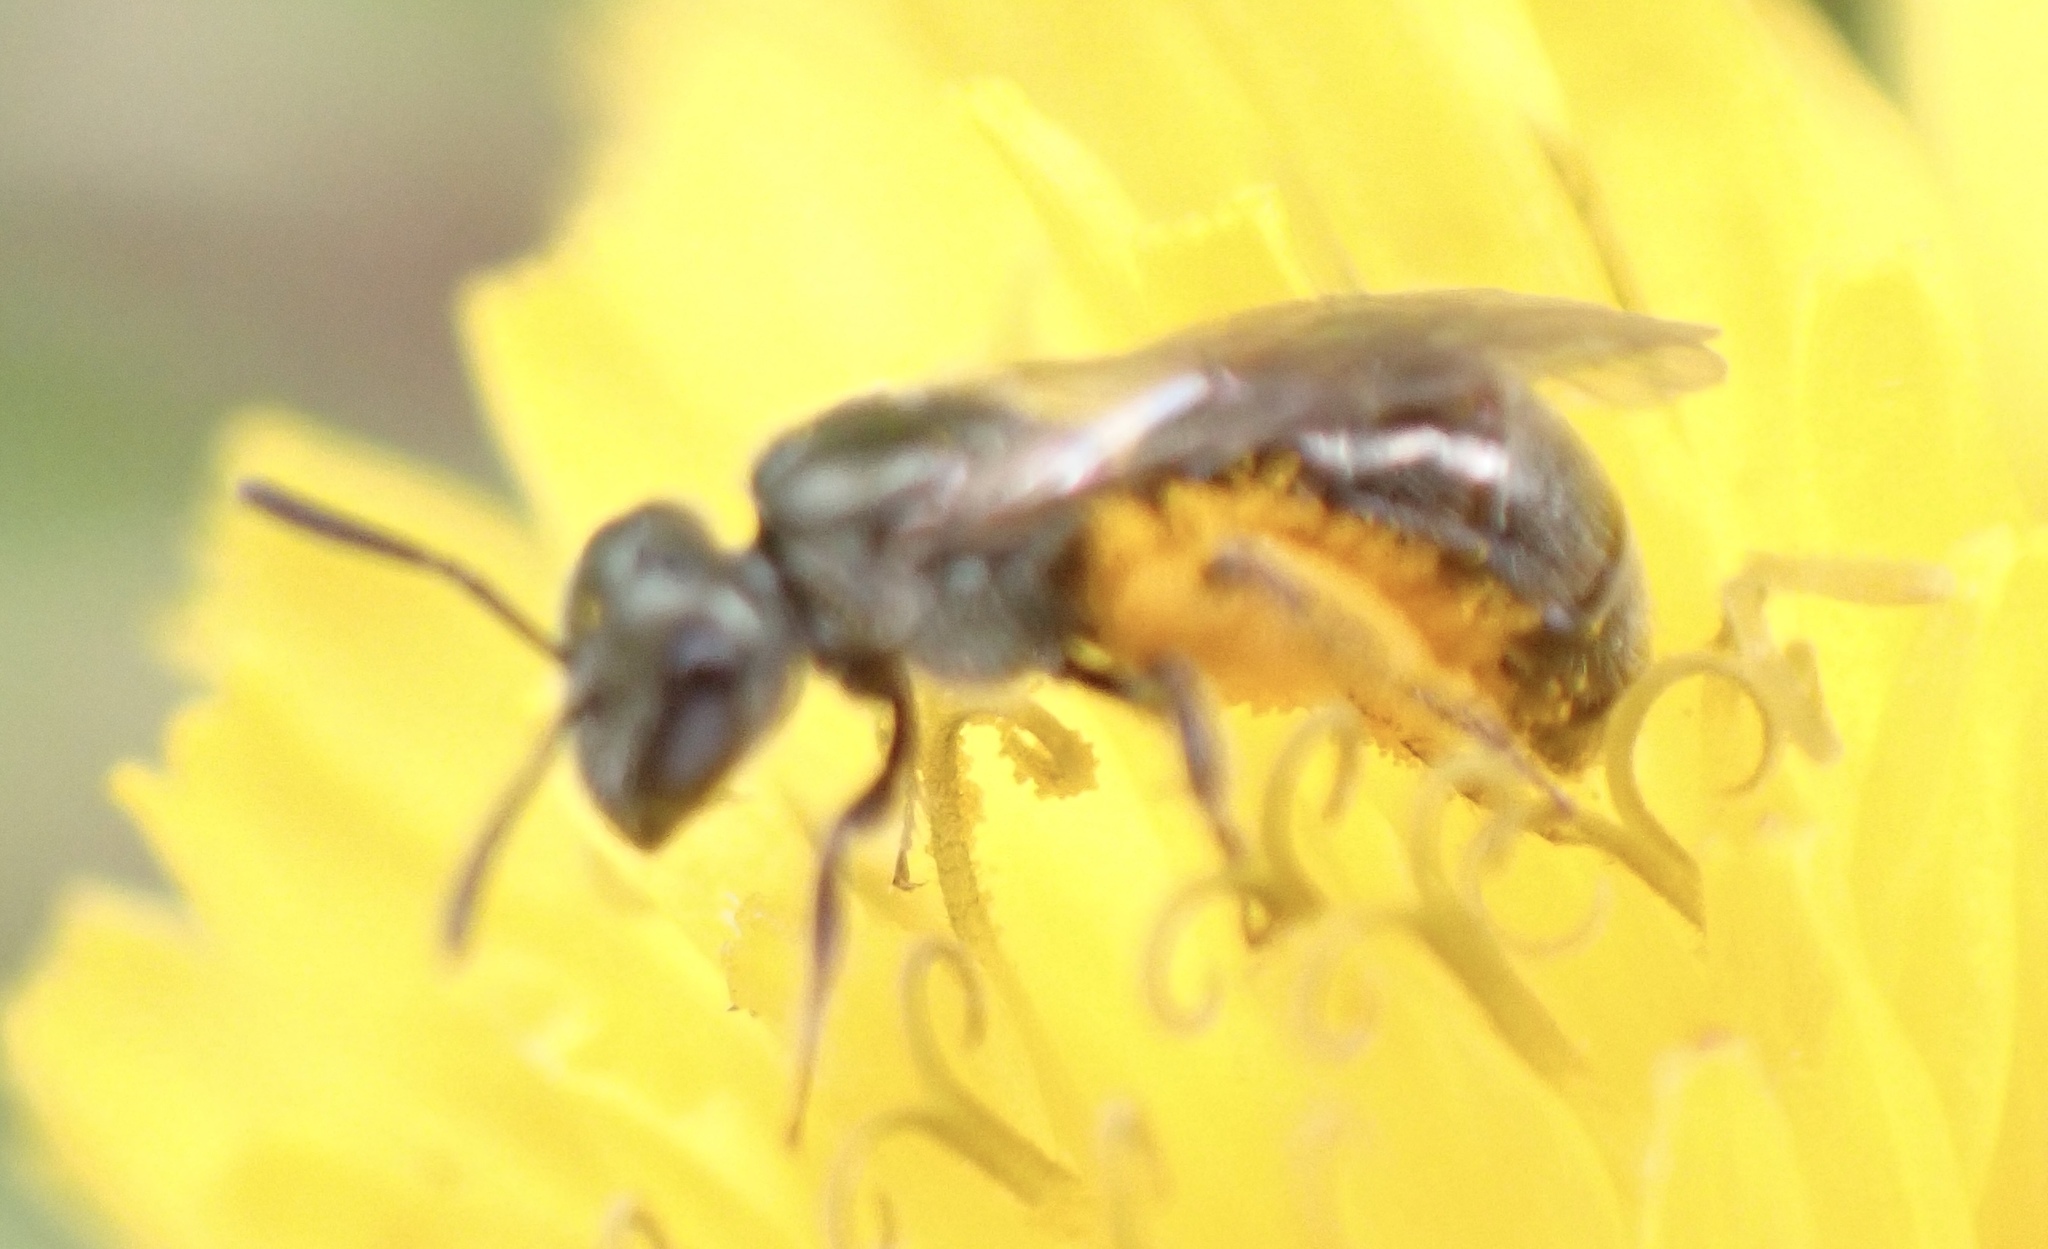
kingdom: Animalia
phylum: Arthropoda
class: Insecta
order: Hymenoptera
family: Halictidae
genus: Lasioglossum
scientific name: Lasioglossum imitatum
